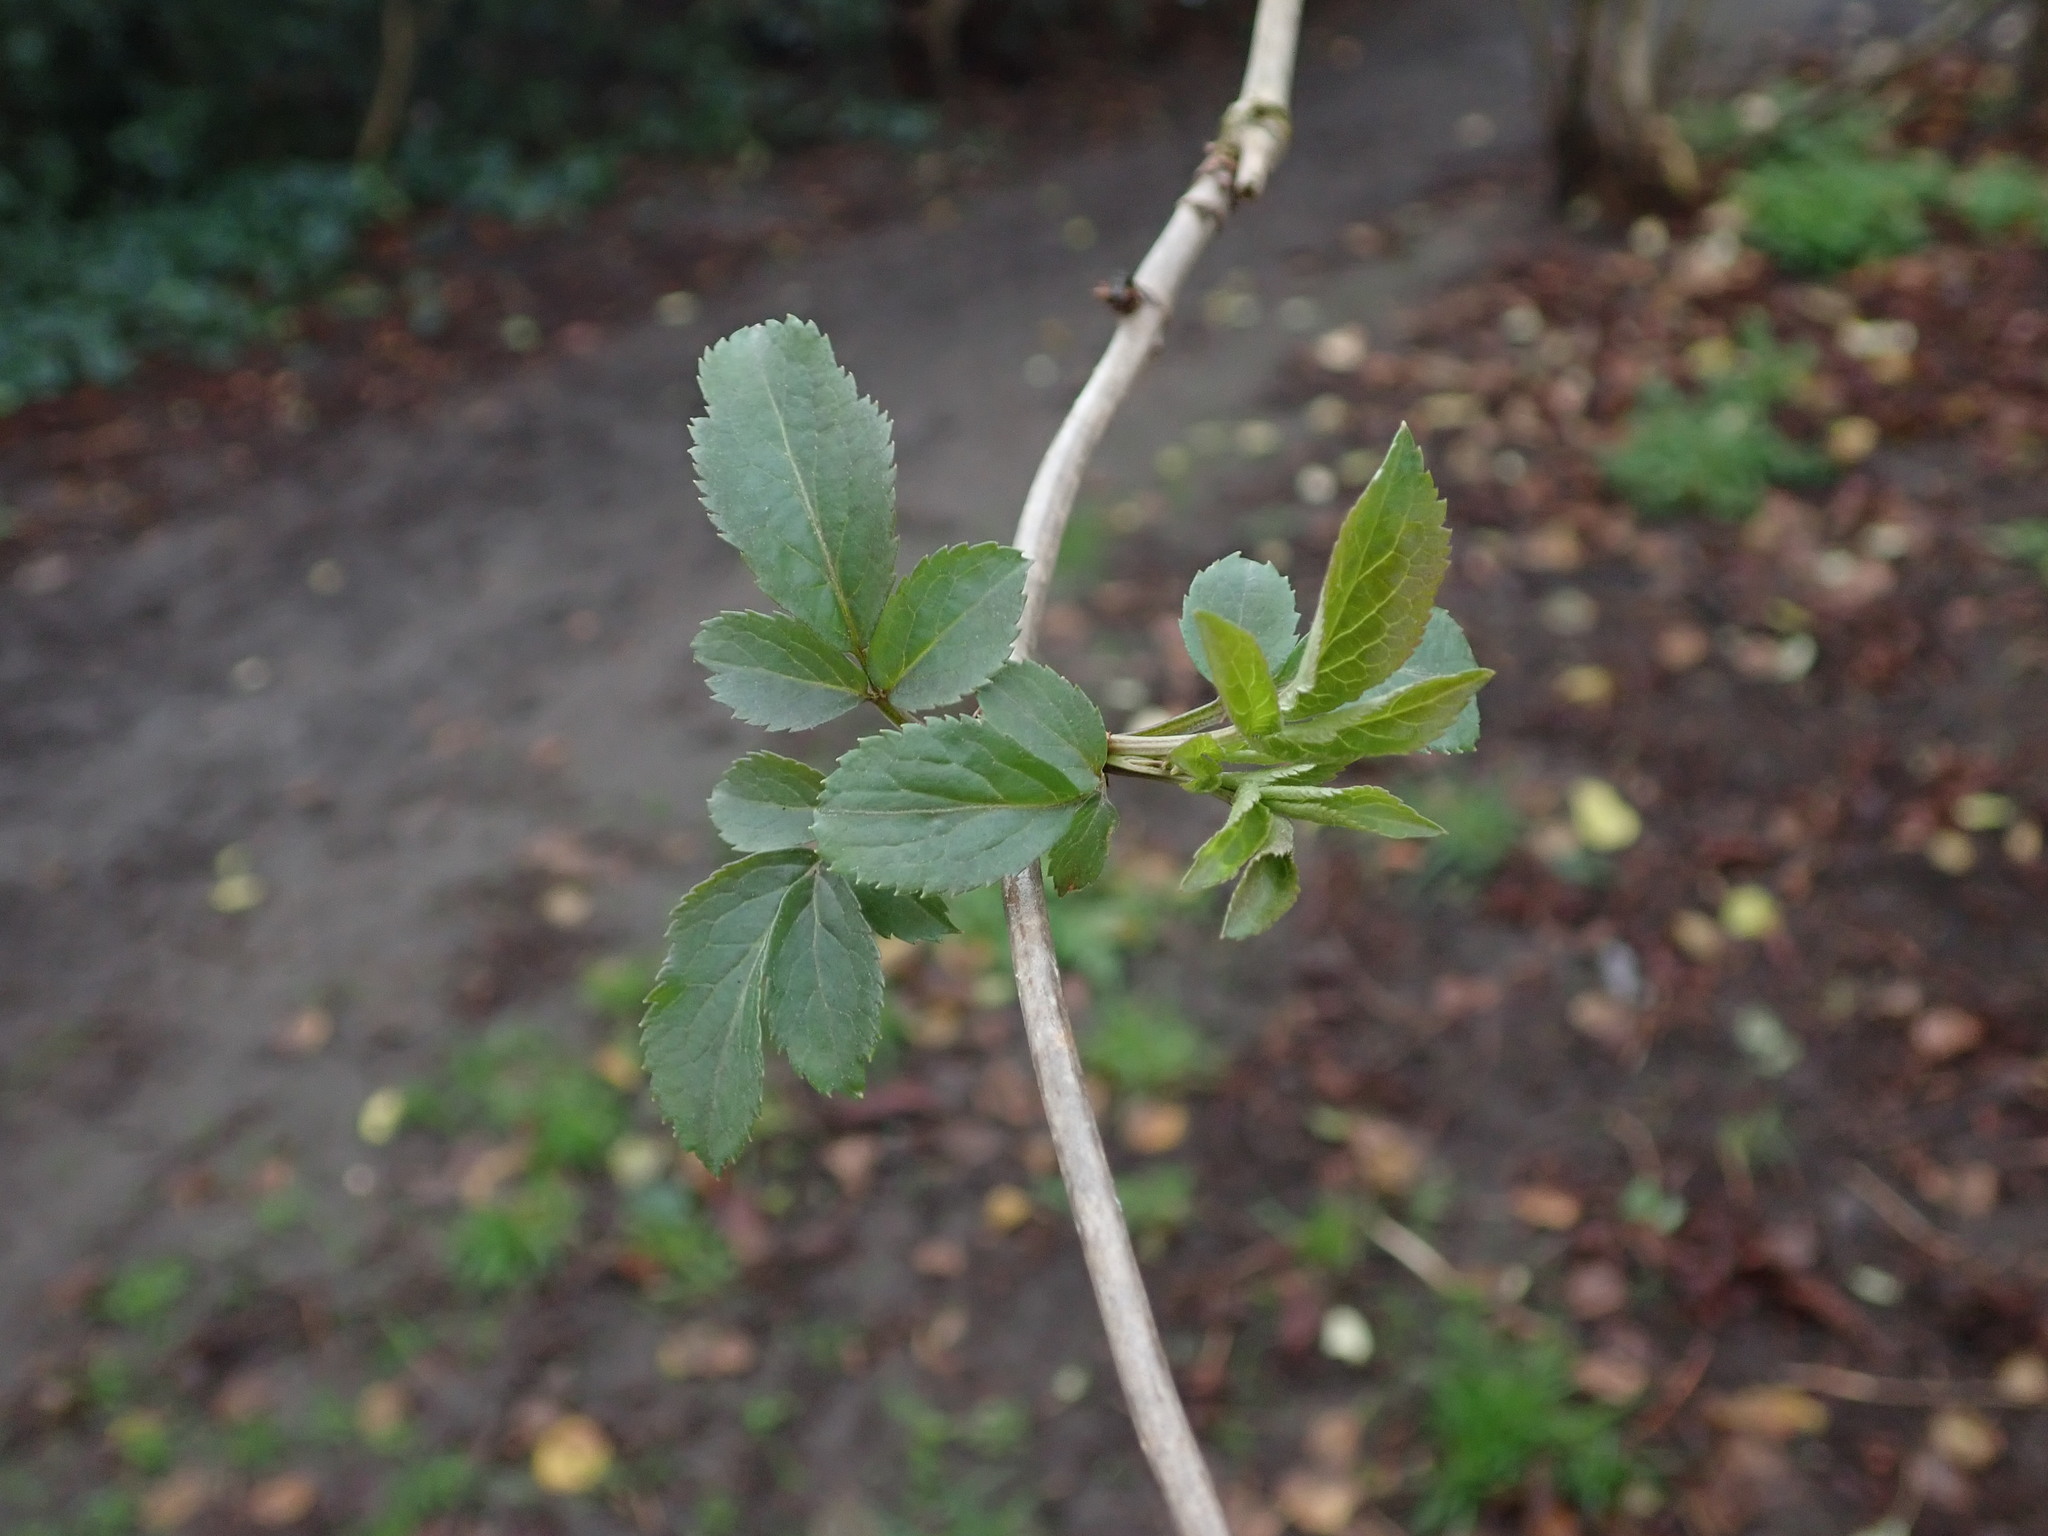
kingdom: Plantae
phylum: Tracheophyta
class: Magnoliopsida
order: Dipsacales
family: Viburnaceae
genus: Sambucus
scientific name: Sambucus nigra
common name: Elder
